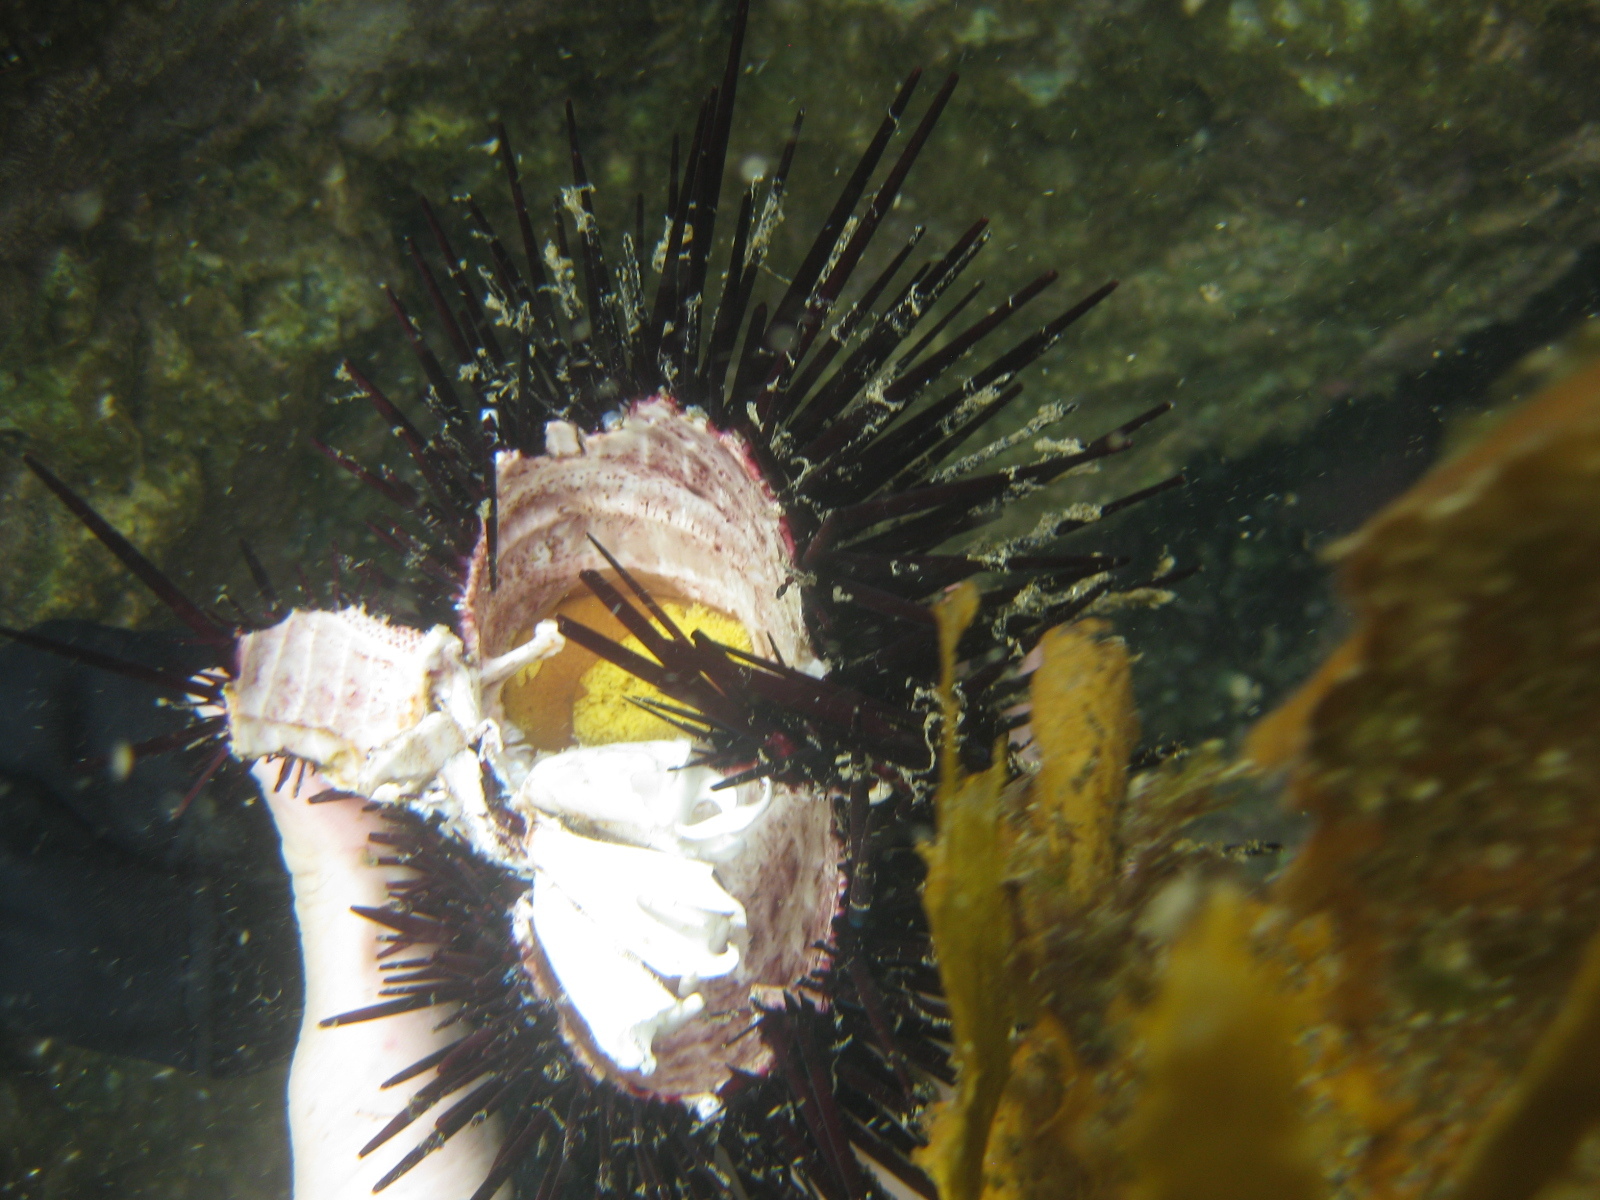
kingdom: Animalia
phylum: Echinodermata
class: Echinoidea
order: Diadematoida
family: Diadematidae
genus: Centrostephanus
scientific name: Centrostephanus rodgersii
